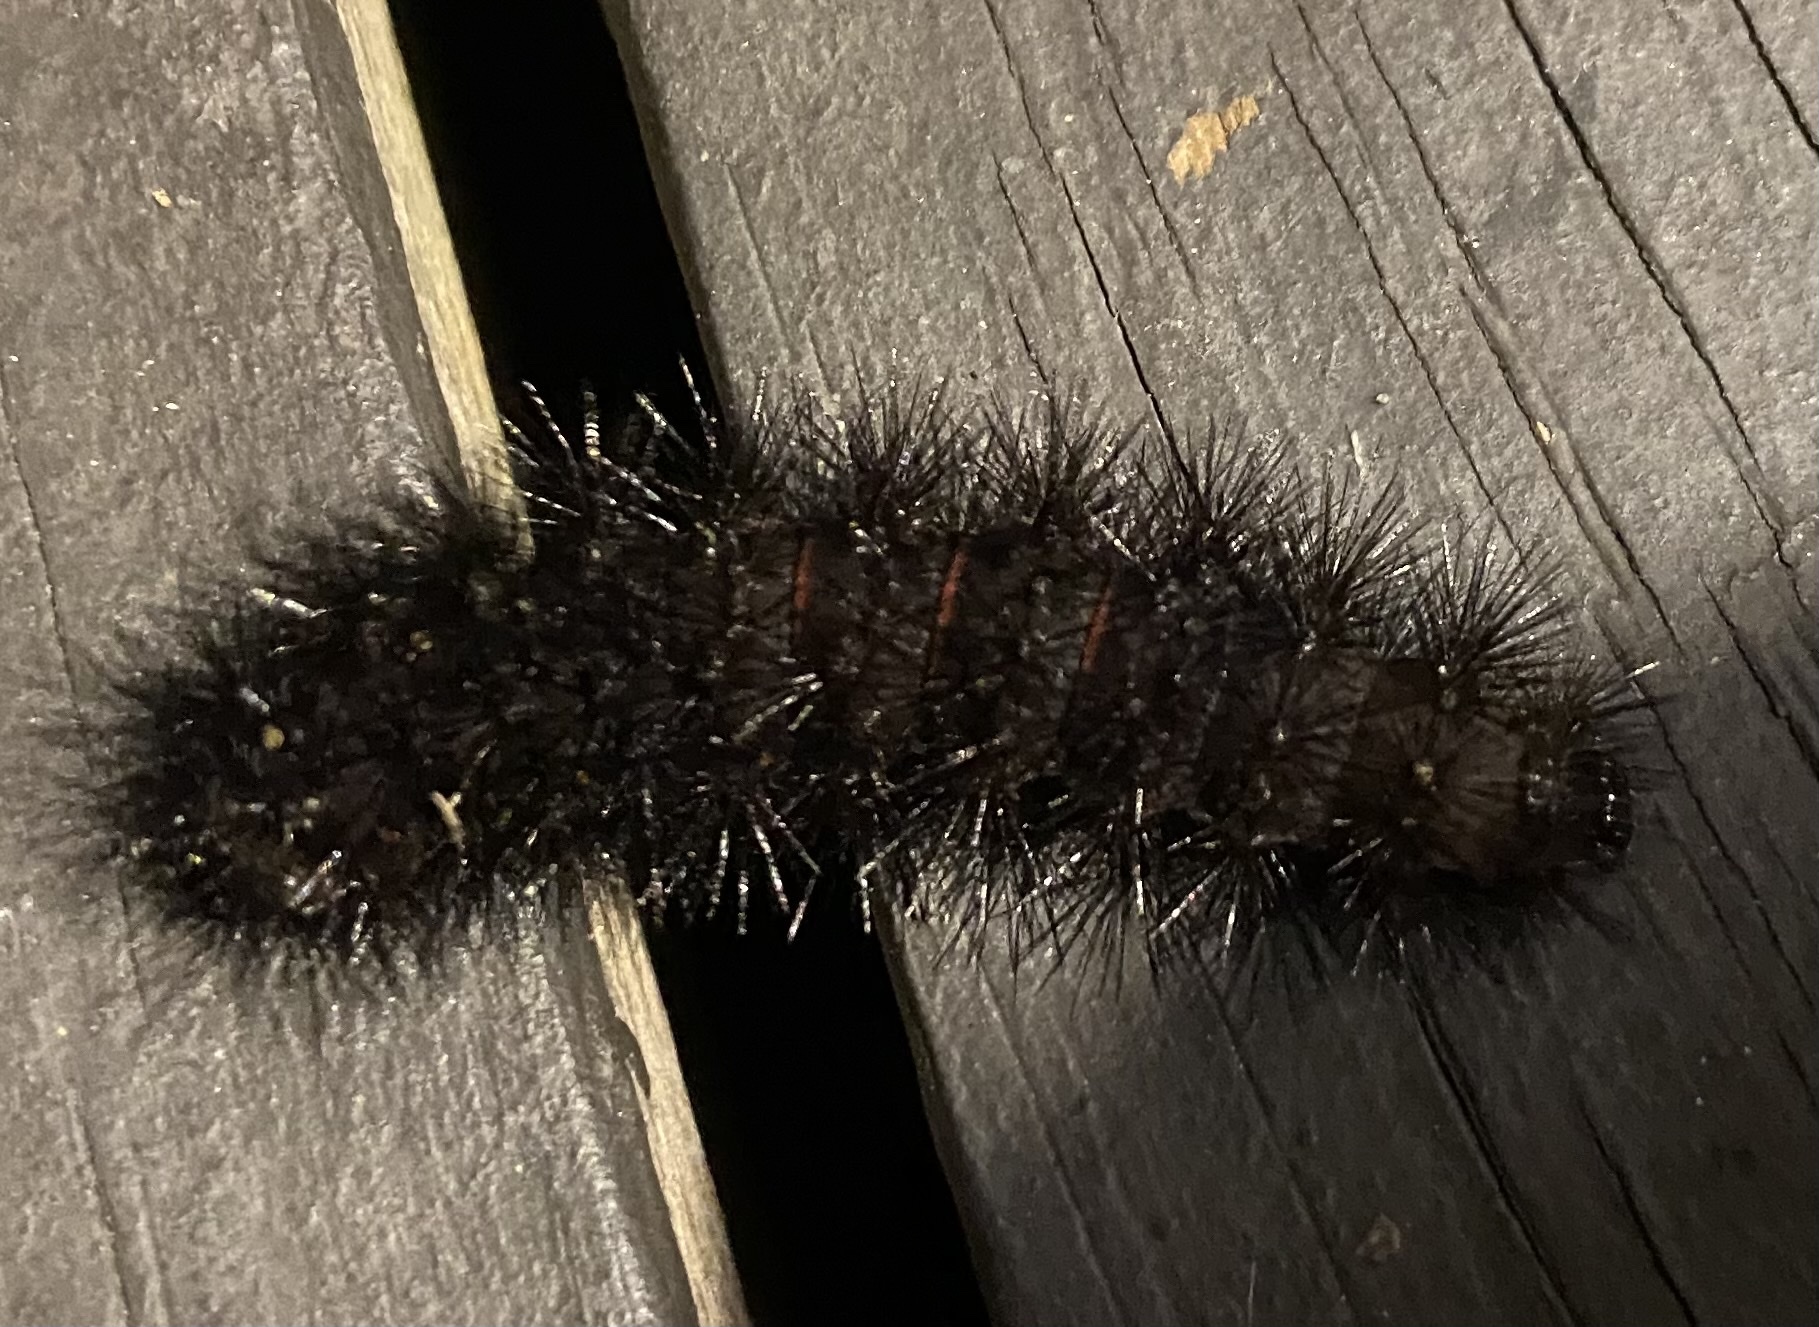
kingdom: Animalia
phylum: Arthropoda
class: Insecta
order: Lepidoptera
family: Erebidae
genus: Hypercompe
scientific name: Hypercompe scribonia
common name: Giant leopard moth
